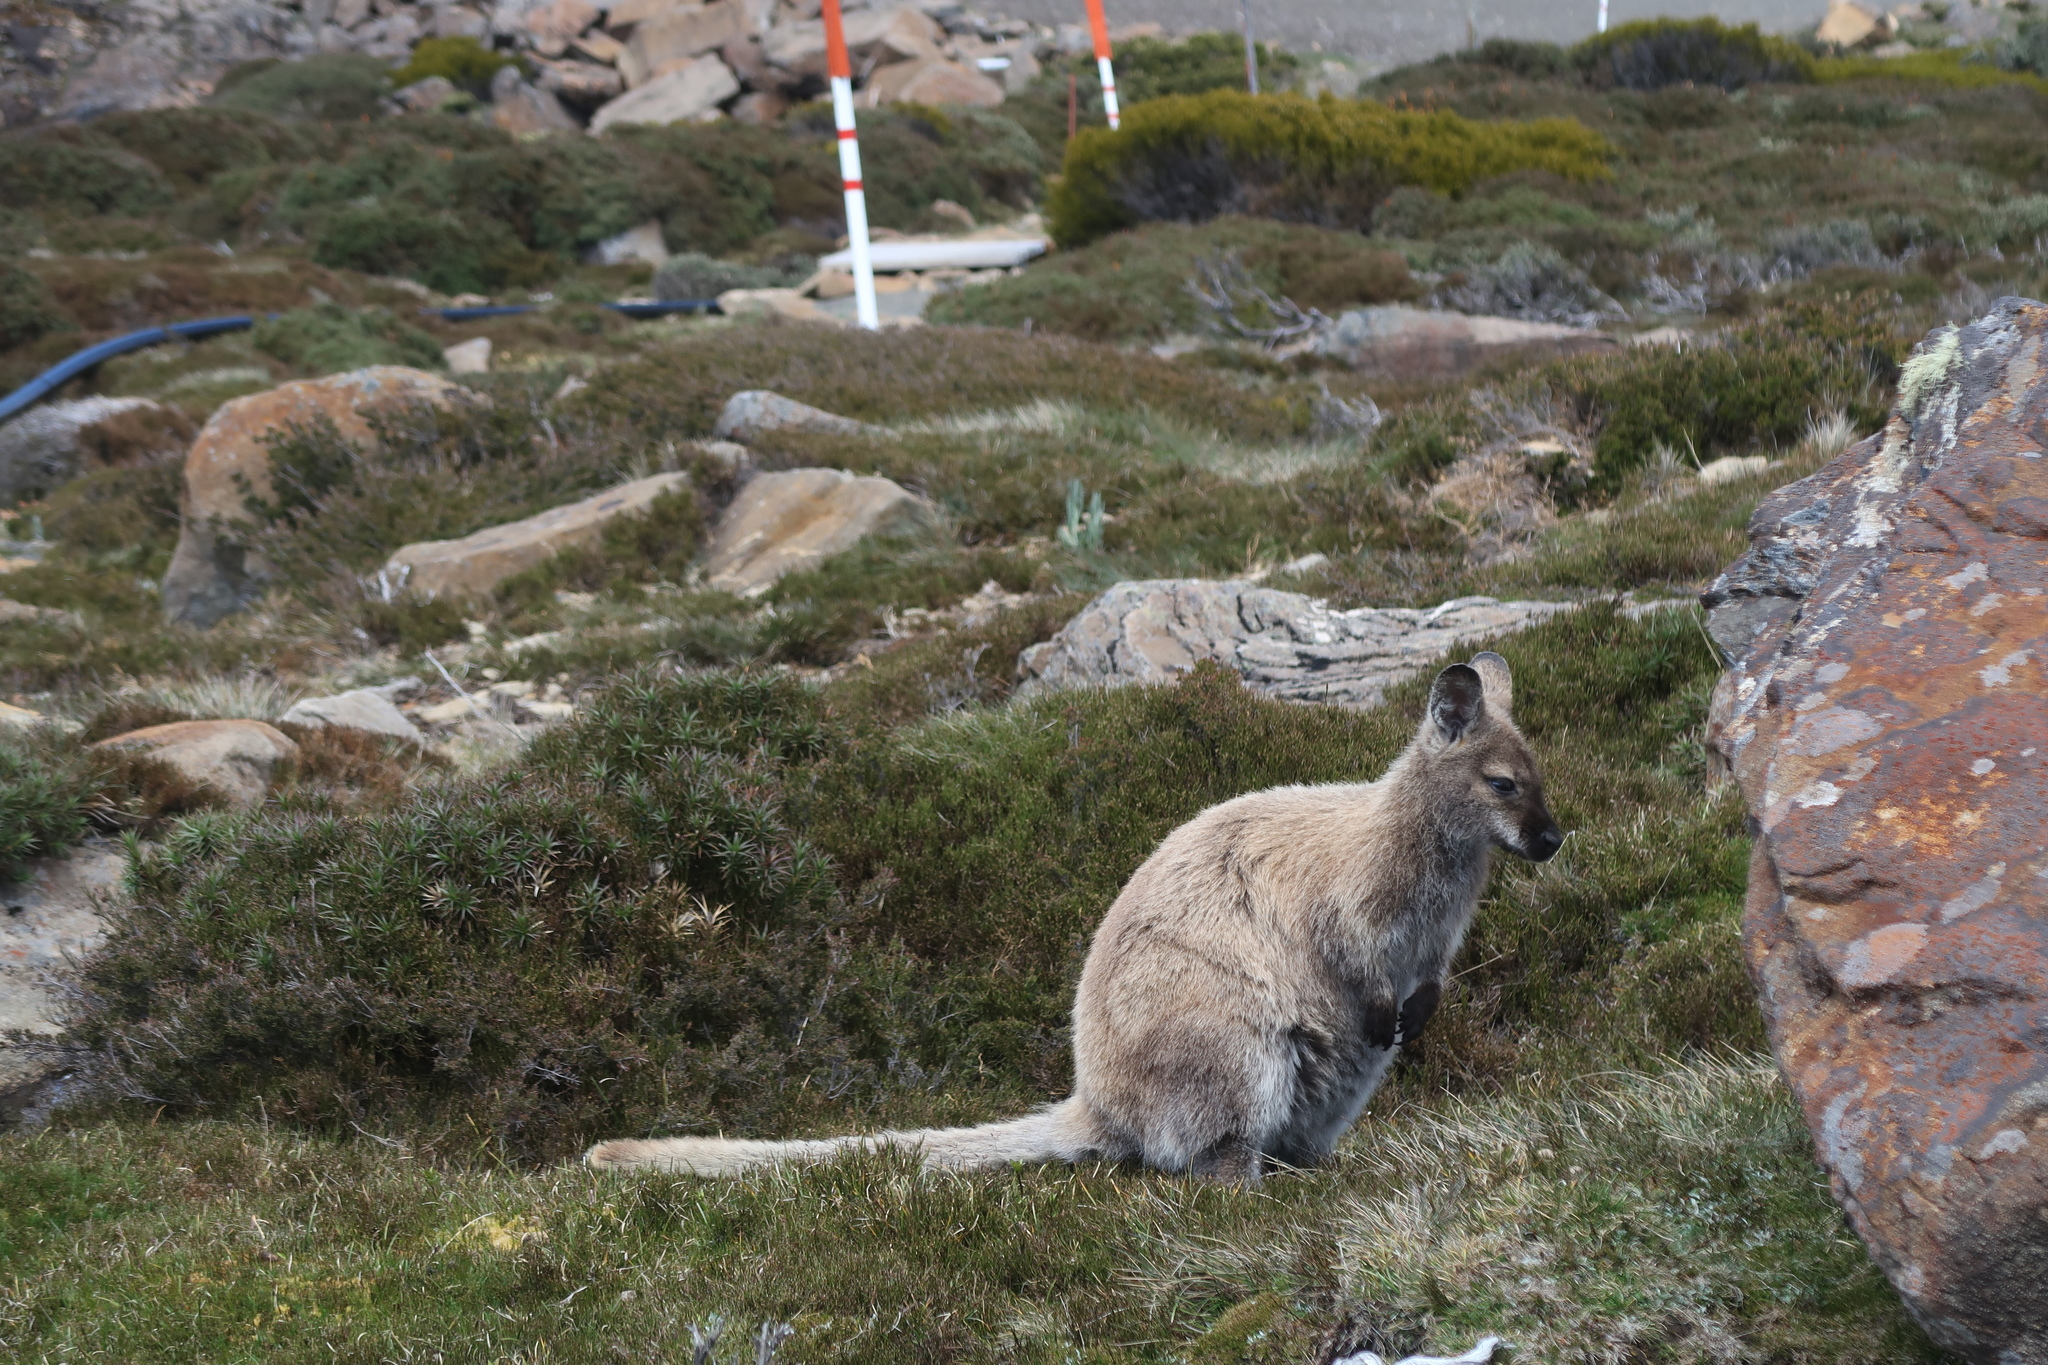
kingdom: Animalia
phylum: Chordata
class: Mammalia
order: Diprotodontia
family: Macropodidae
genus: Notamacropus
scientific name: Notamacropus rufogriseus
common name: Red-necked wallaby
